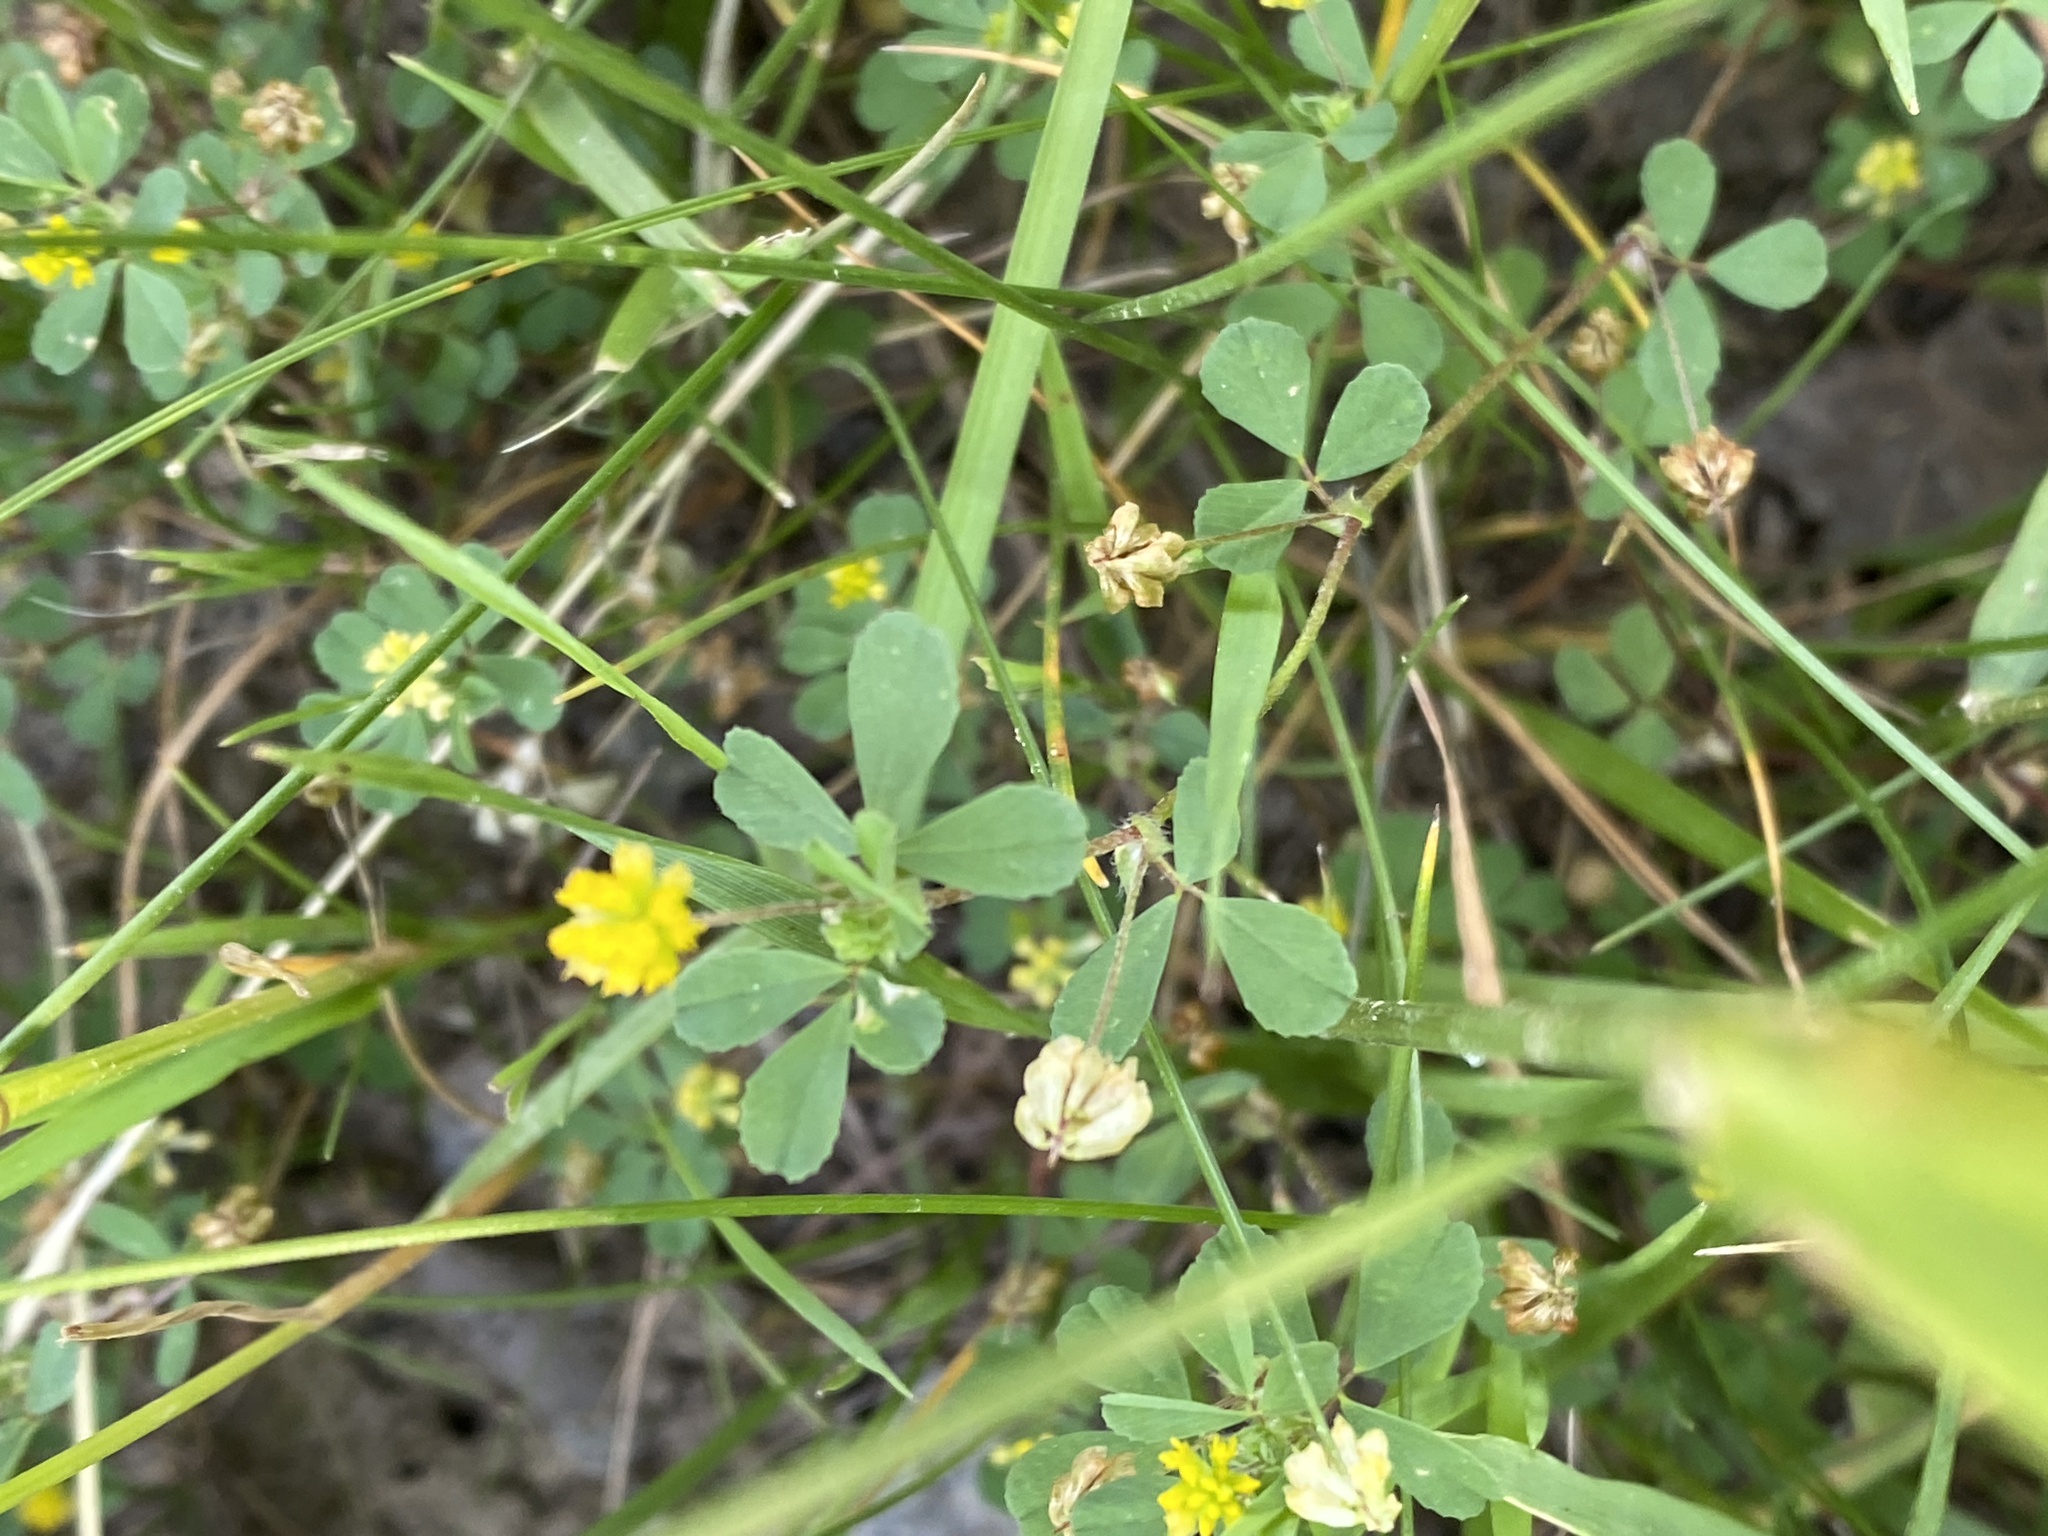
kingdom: Plantae
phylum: Tracheophyta
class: Magnoliopsida
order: Fabales
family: Fabaceae
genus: Trifolium
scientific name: Trifolium dubium
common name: Suckling clover
